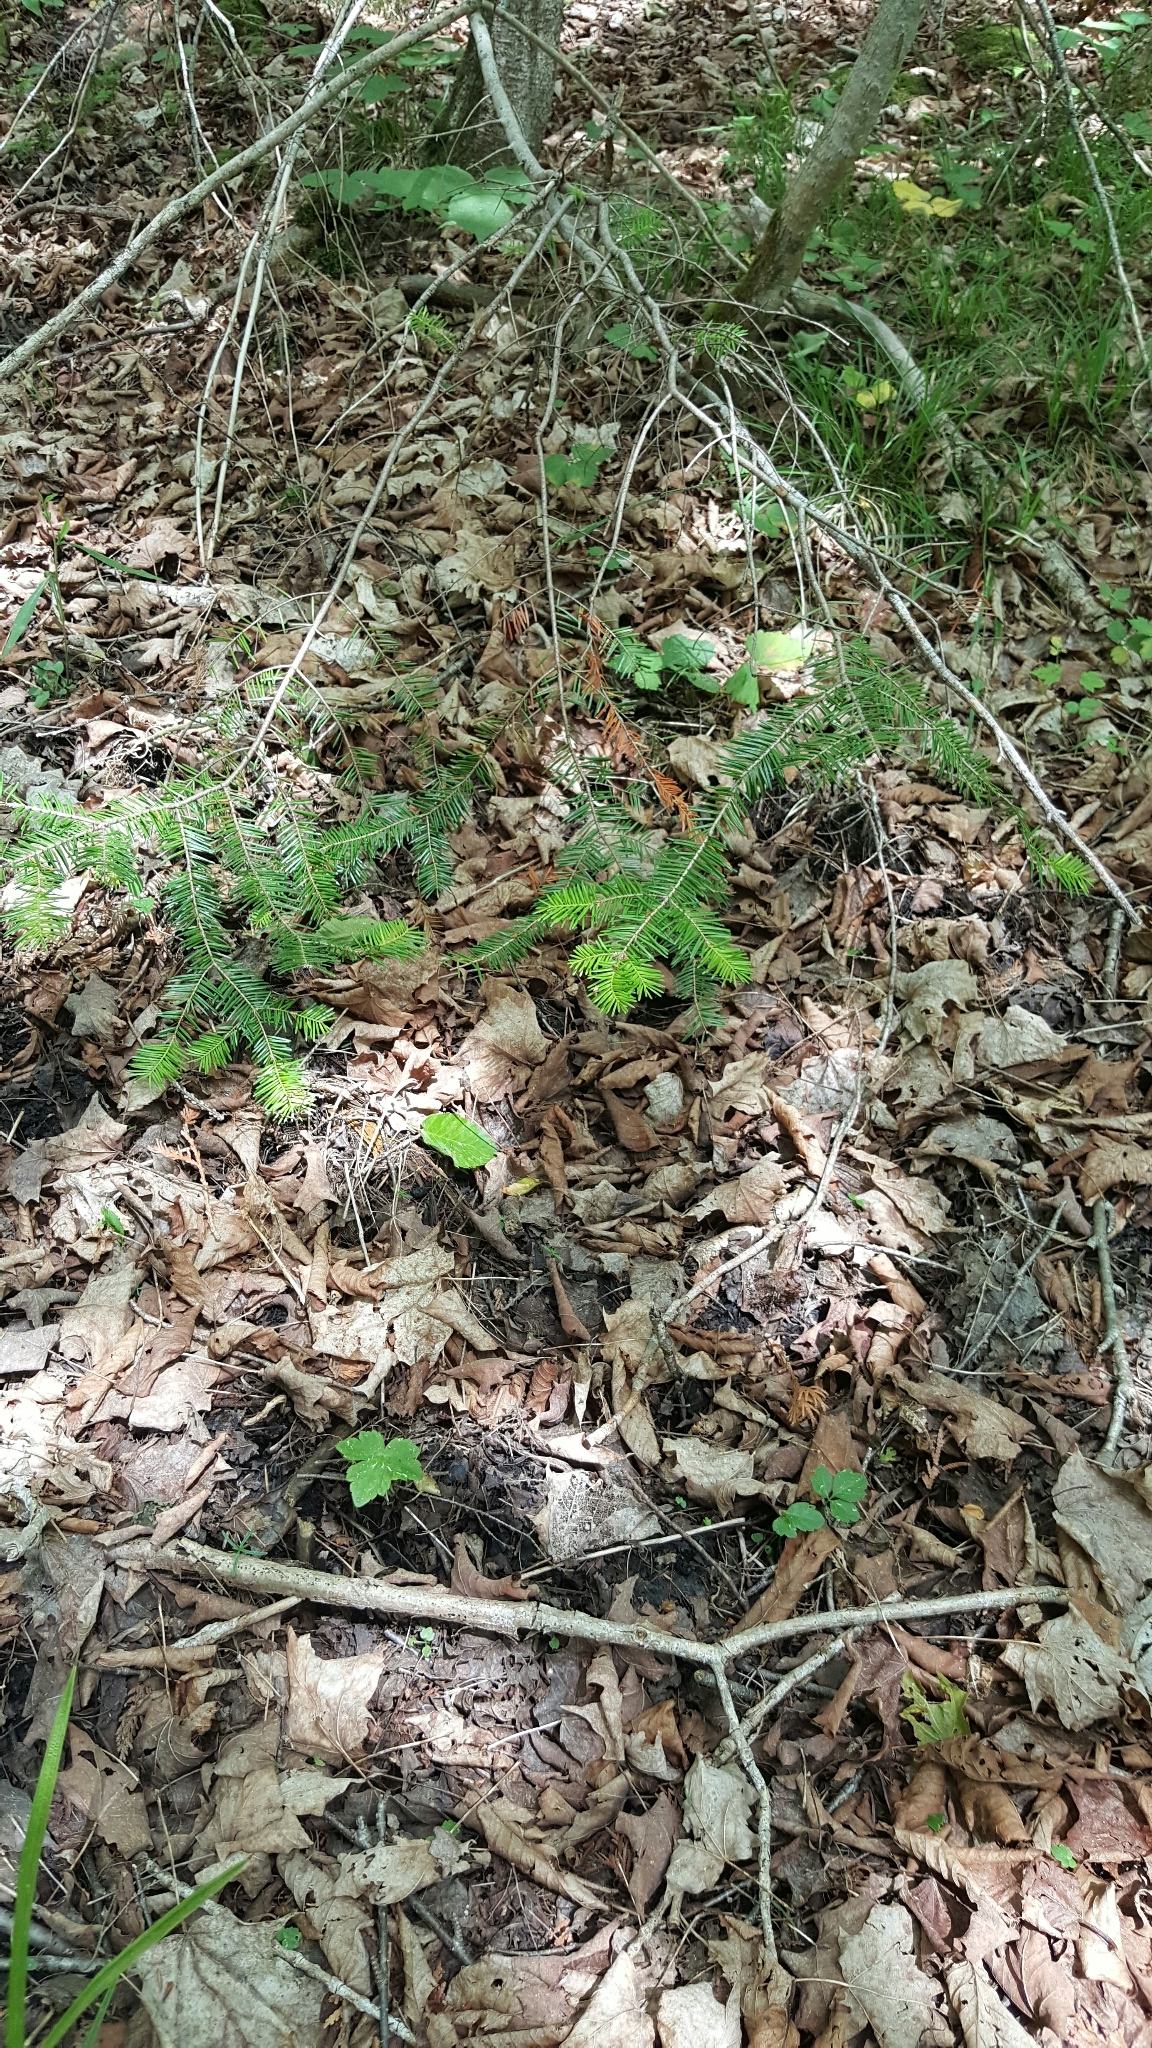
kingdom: Plantae
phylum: Tracheophyta
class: Pinopsida
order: Pinales
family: Pinaceae
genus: Abies
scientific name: Abies balsamea
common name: Balsam fir
